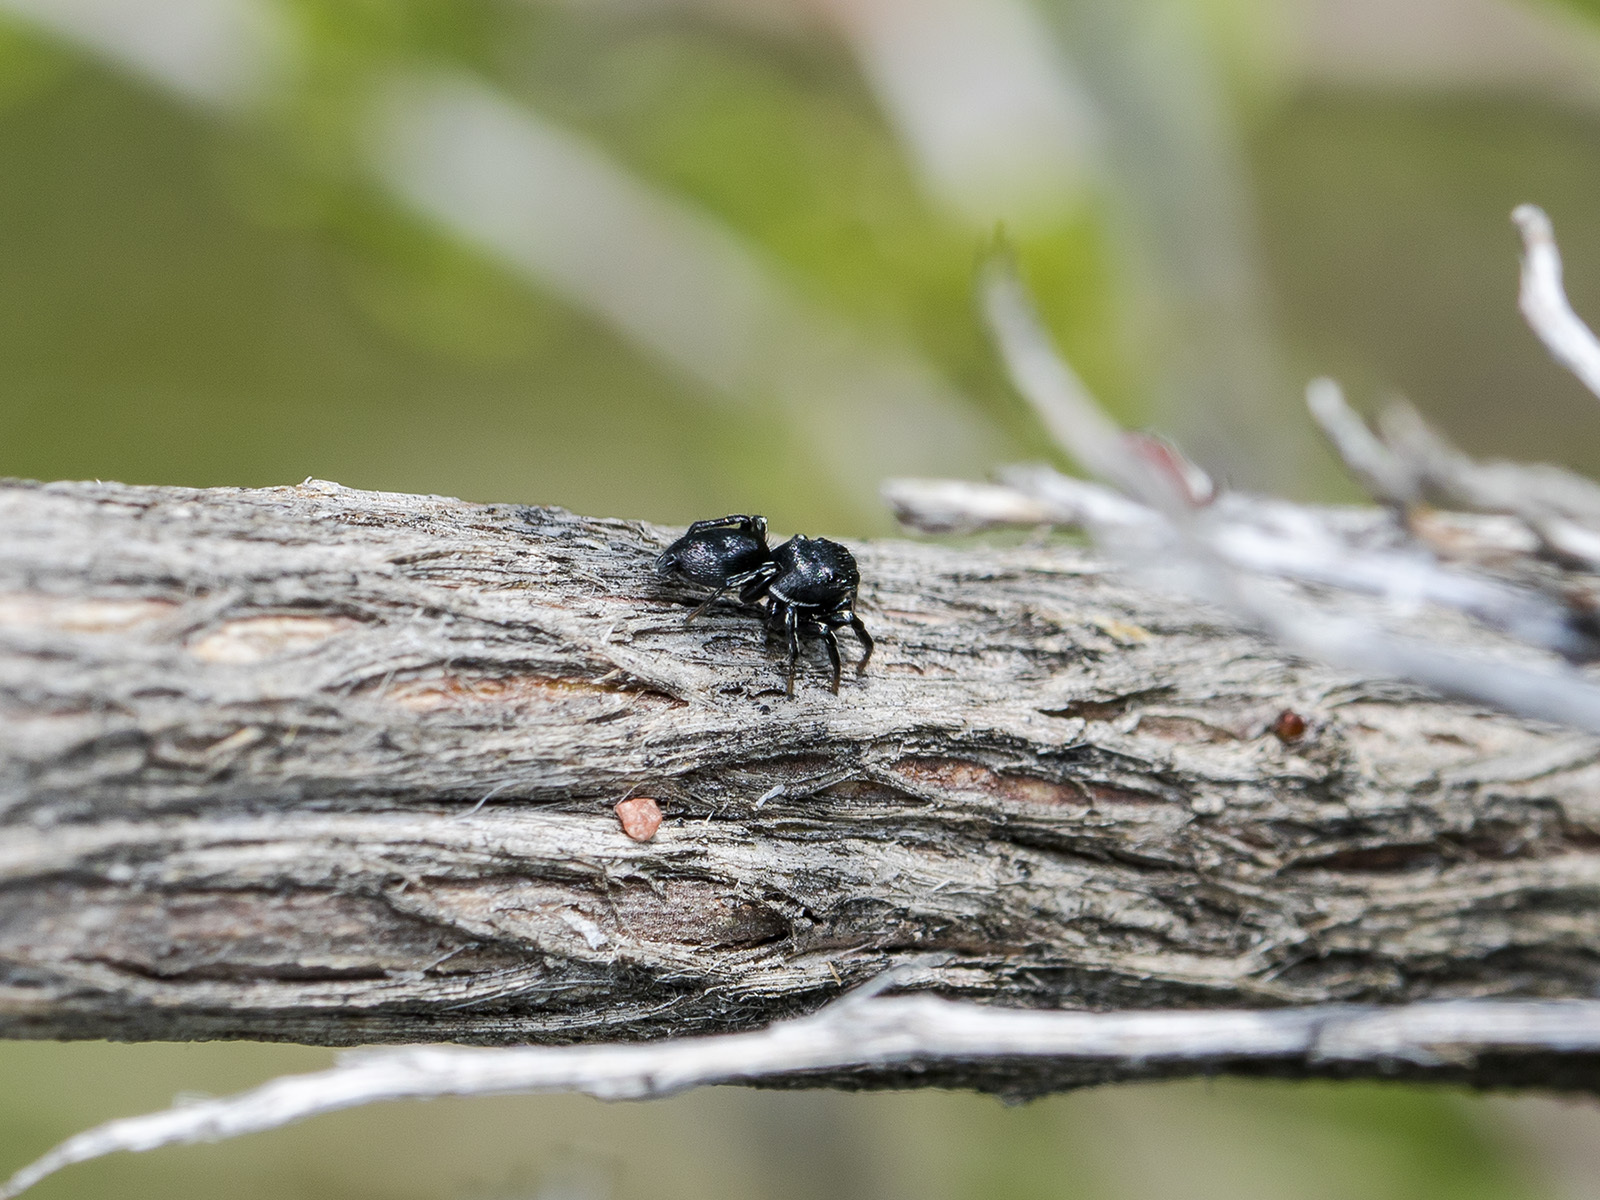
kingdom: Animalia
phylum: Arthropoda
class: Arachnida
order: Araneae
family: Salticidae
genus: Heliophanus
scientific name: Heliophanus potanini
